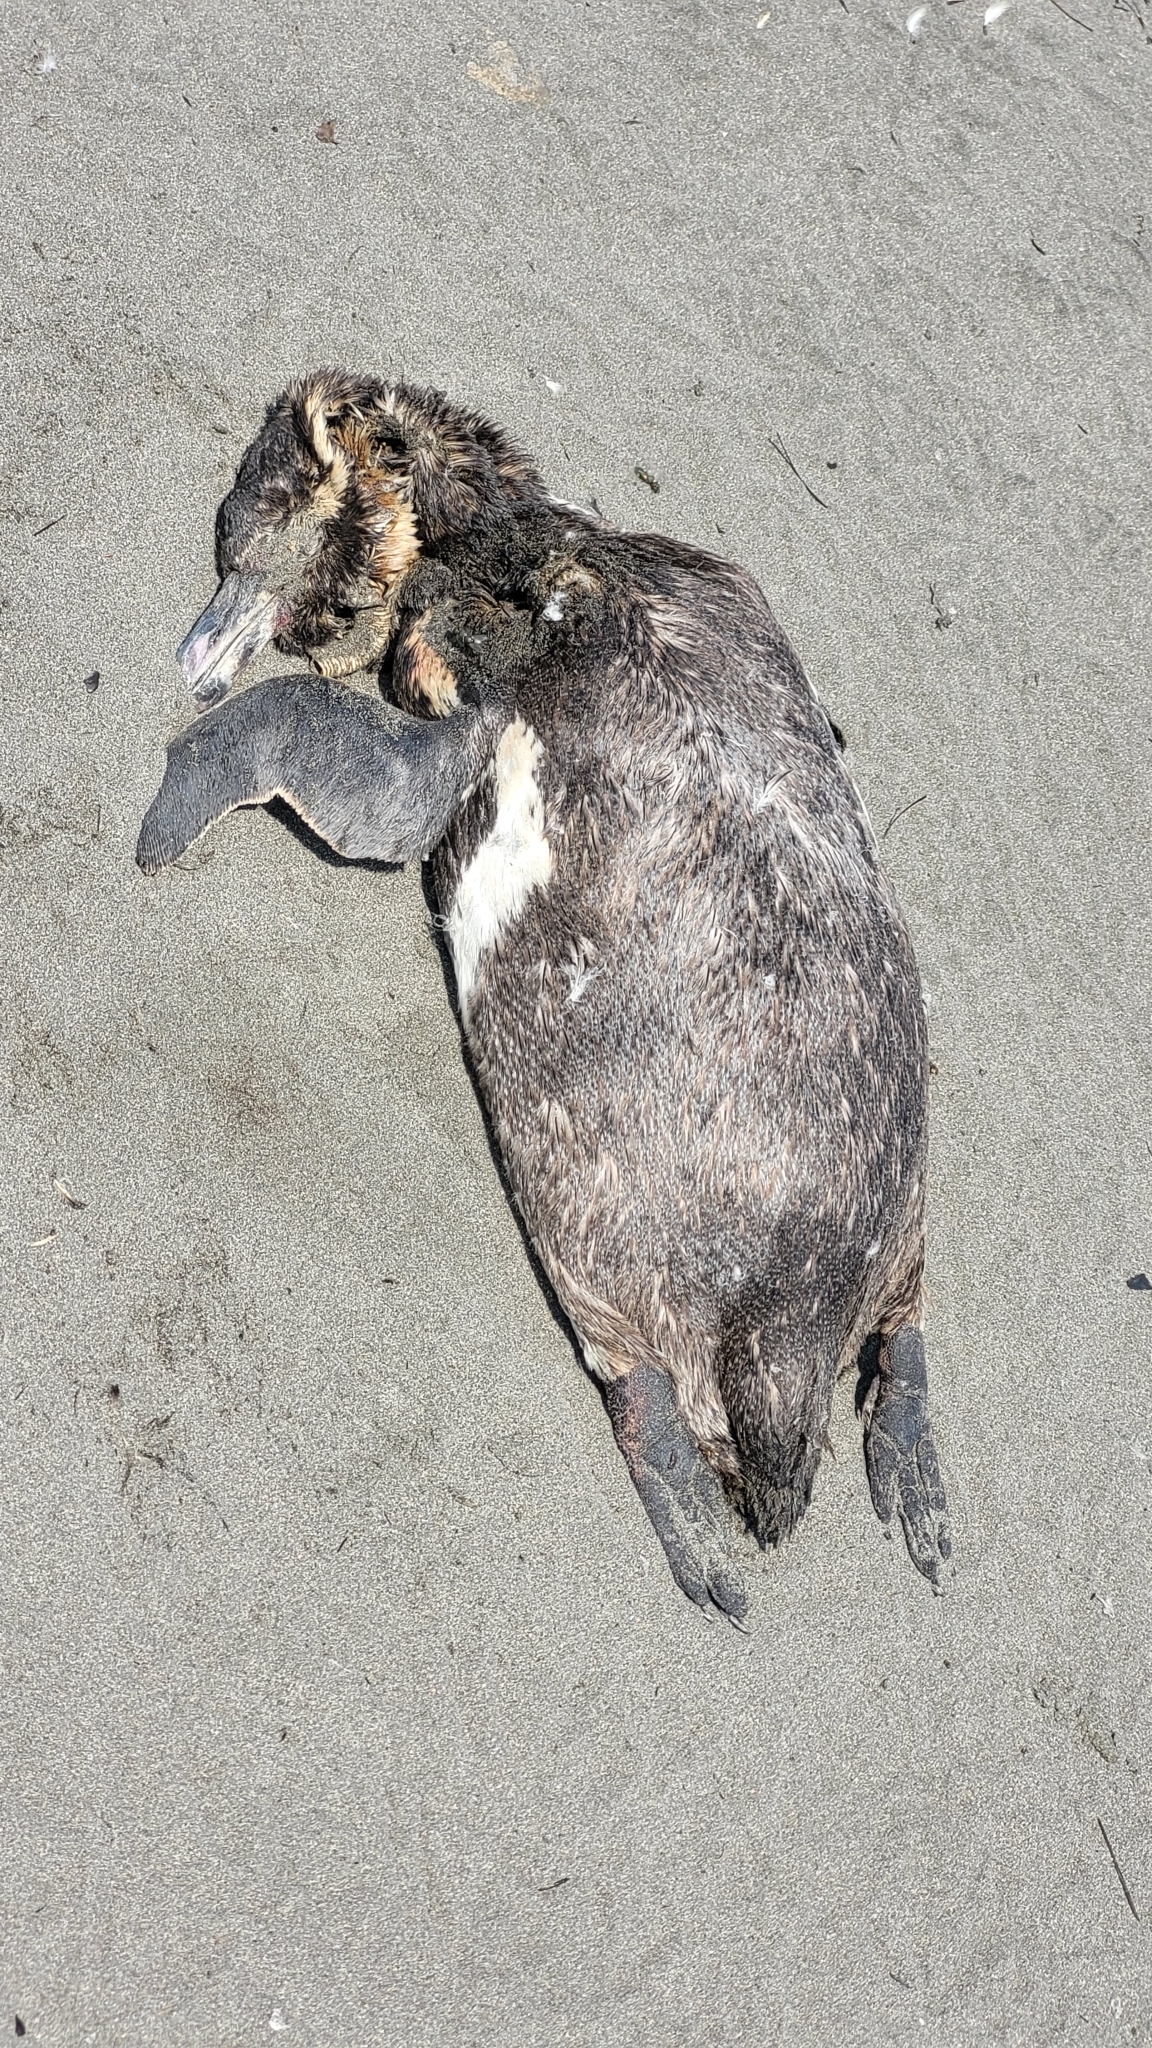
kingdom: Animalia
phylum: Chordata
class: Aves
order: Sphenisciformes
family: Spheniscidae
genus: Spheniscus
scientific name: Spheniscus humboldti
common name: Humboldt penguin
